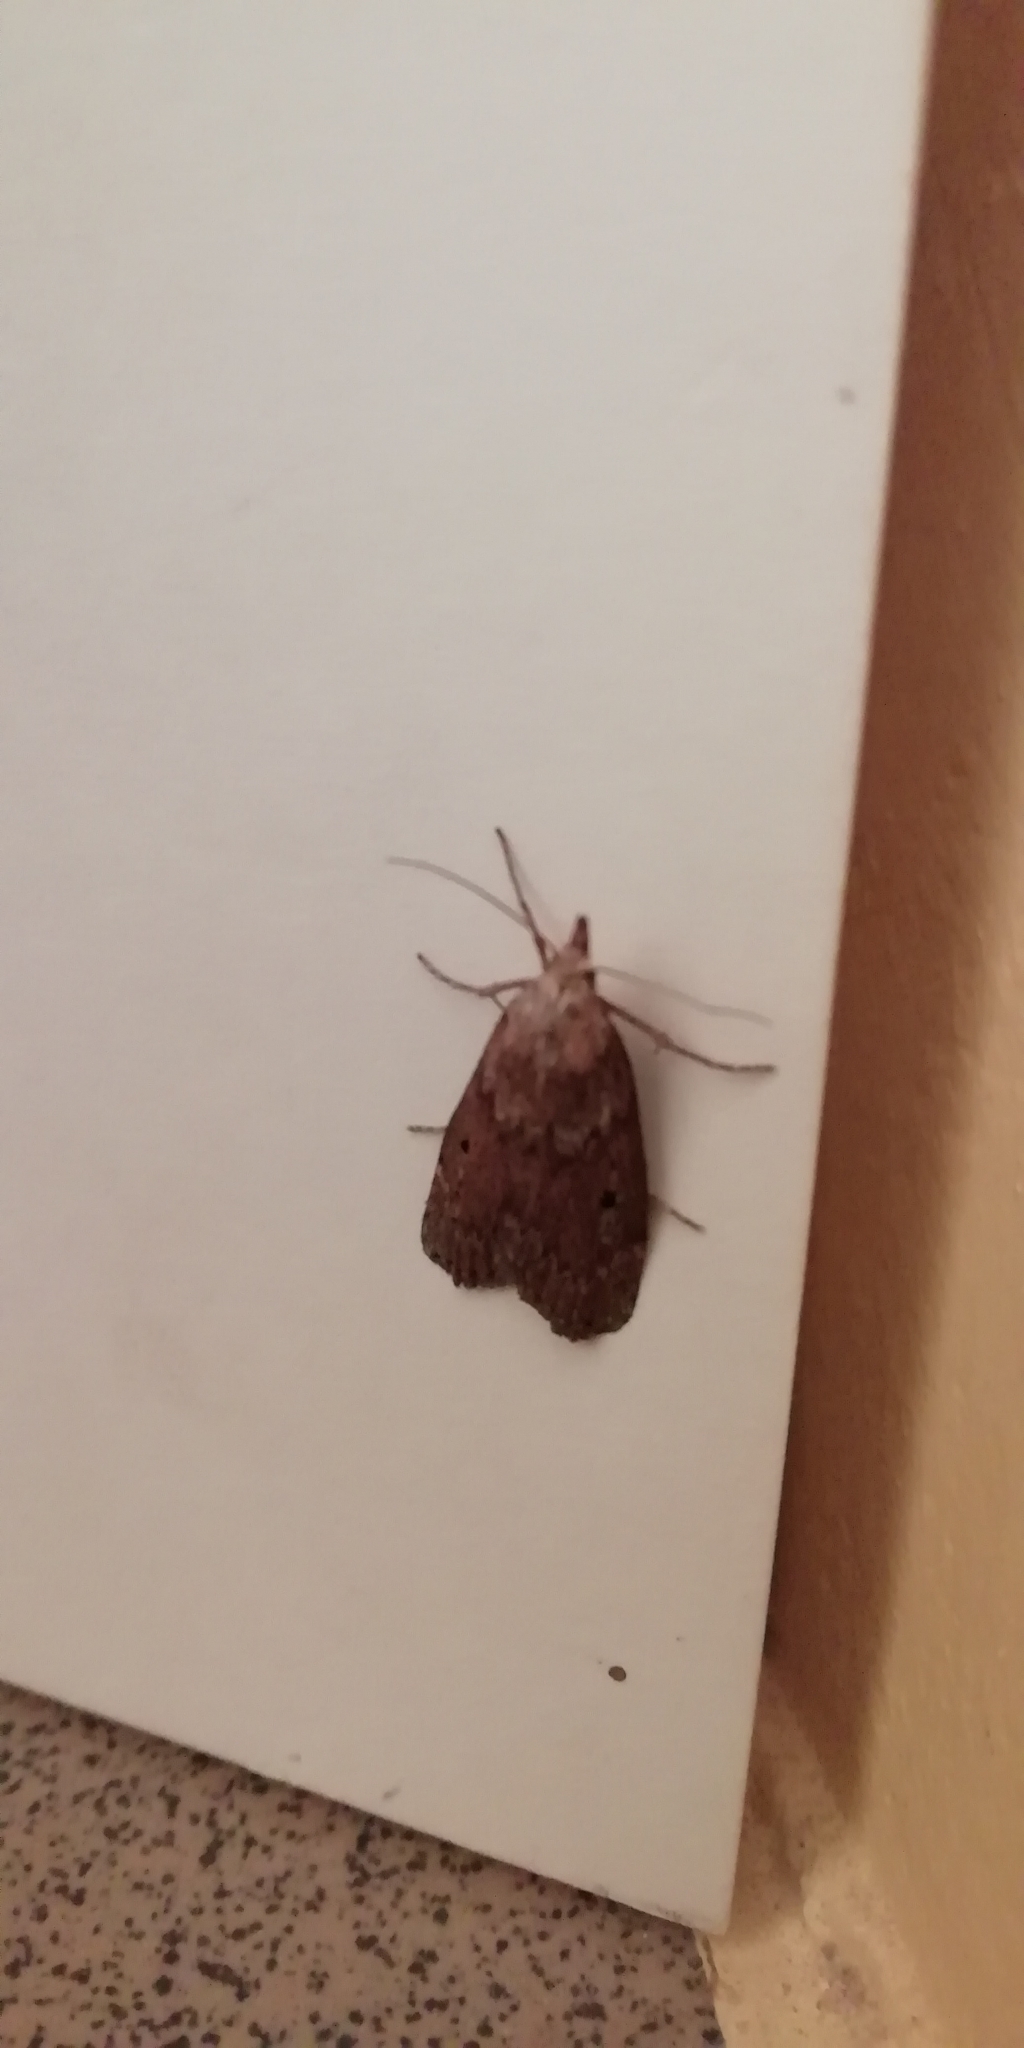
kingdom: Animalia
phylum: Arthropoda
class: Insecta
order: Lepidoptera
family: Pyralidae
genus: Aphomia
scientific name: Aphomia sociella
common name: Bee moth
